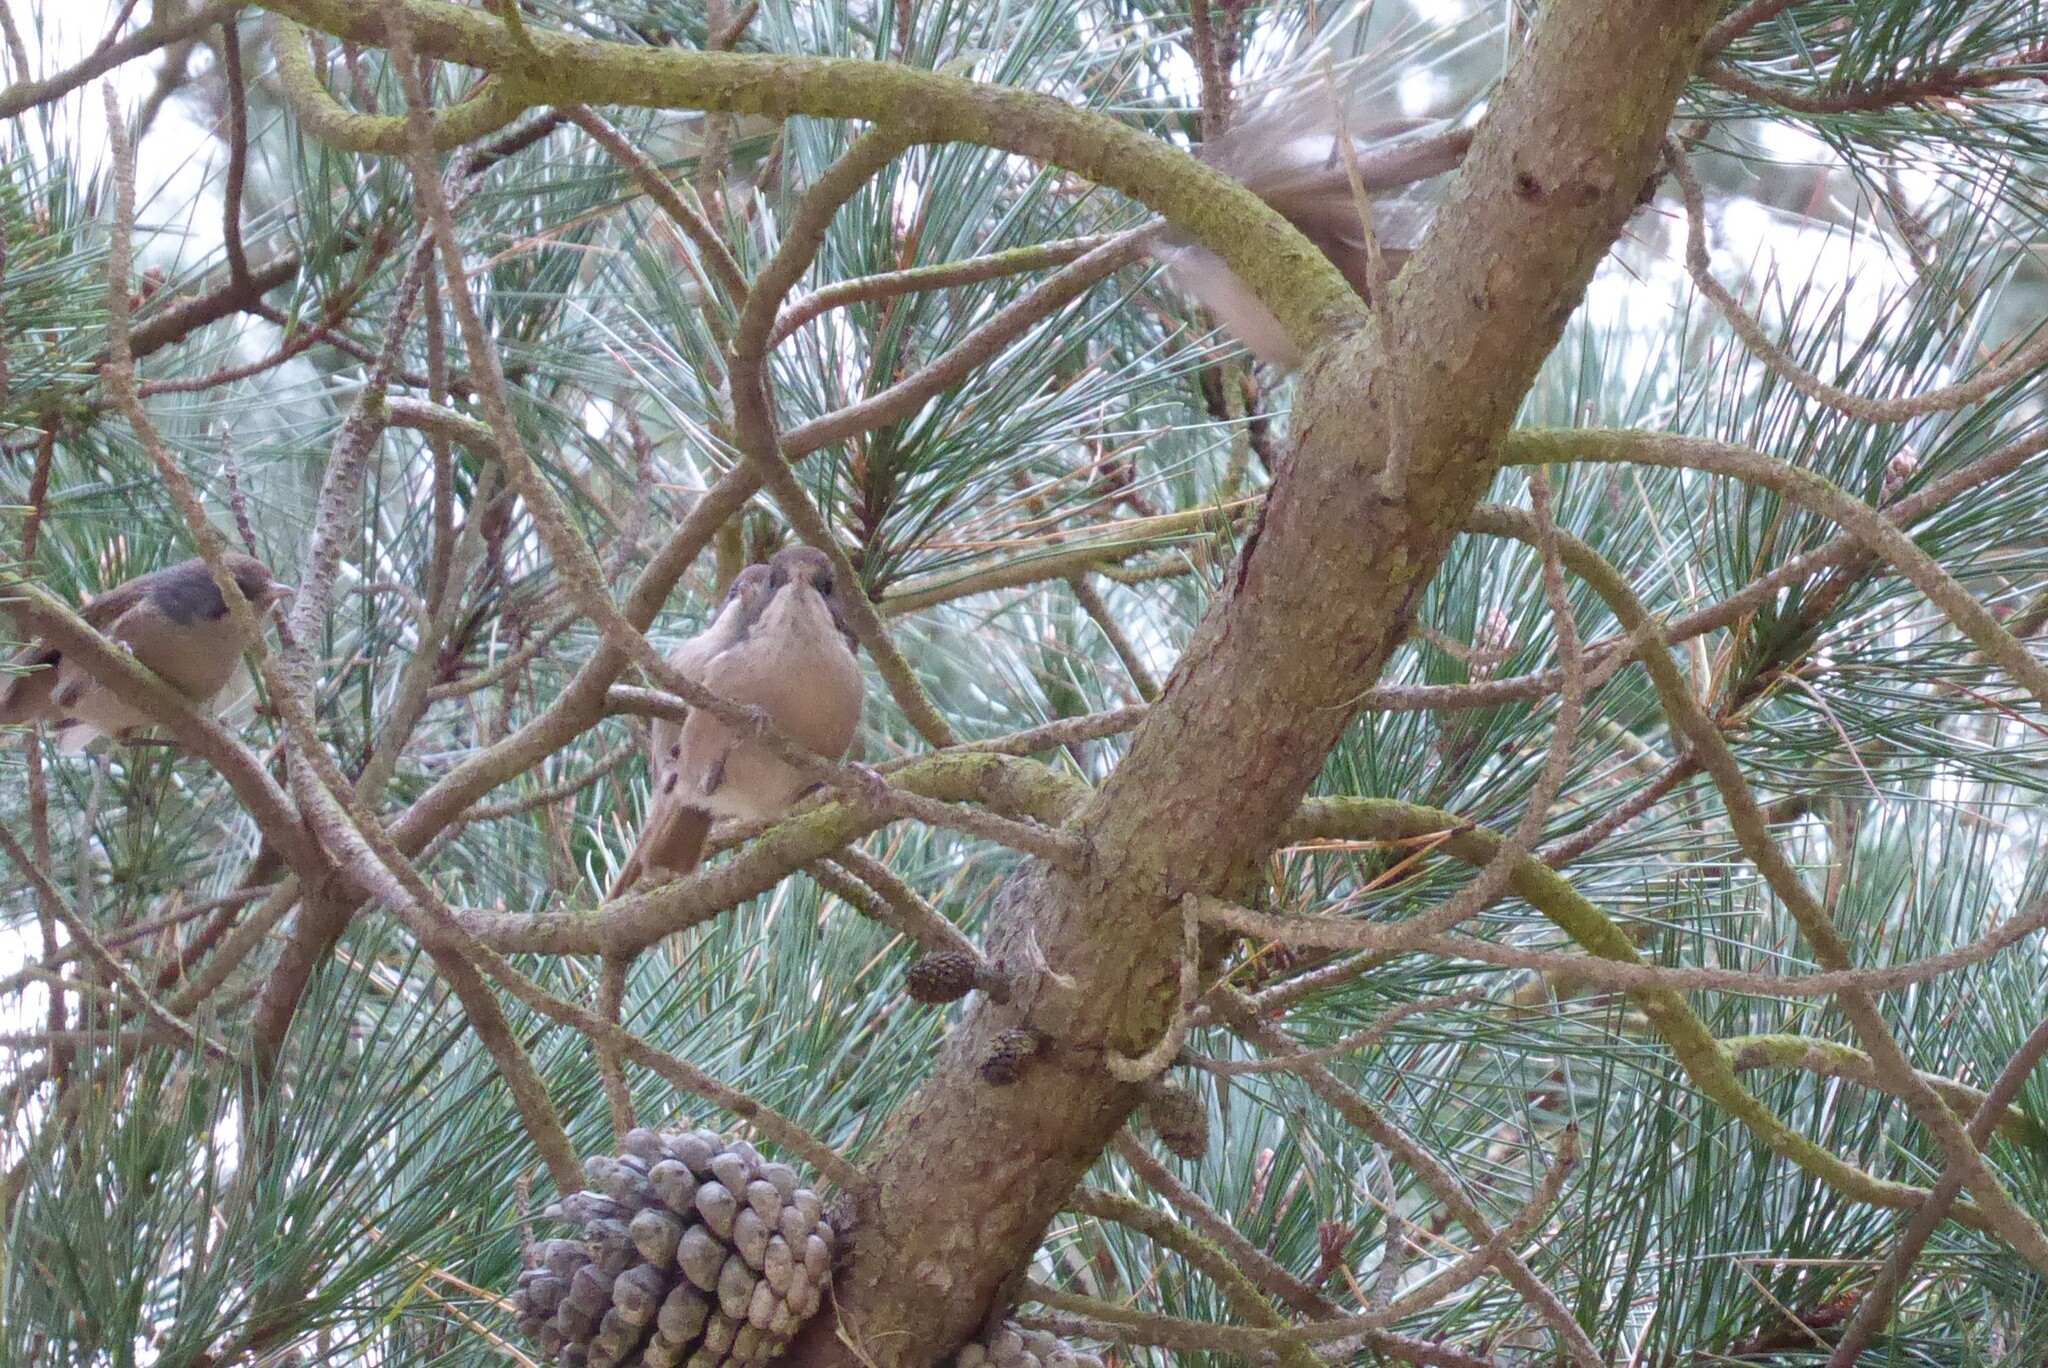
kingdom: Animalia
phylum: Chordata
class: Aves
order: Passeriformes
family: Acanthizidae
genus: Finschia
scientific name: Finschia novaeseelandiae
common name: Pipipi
